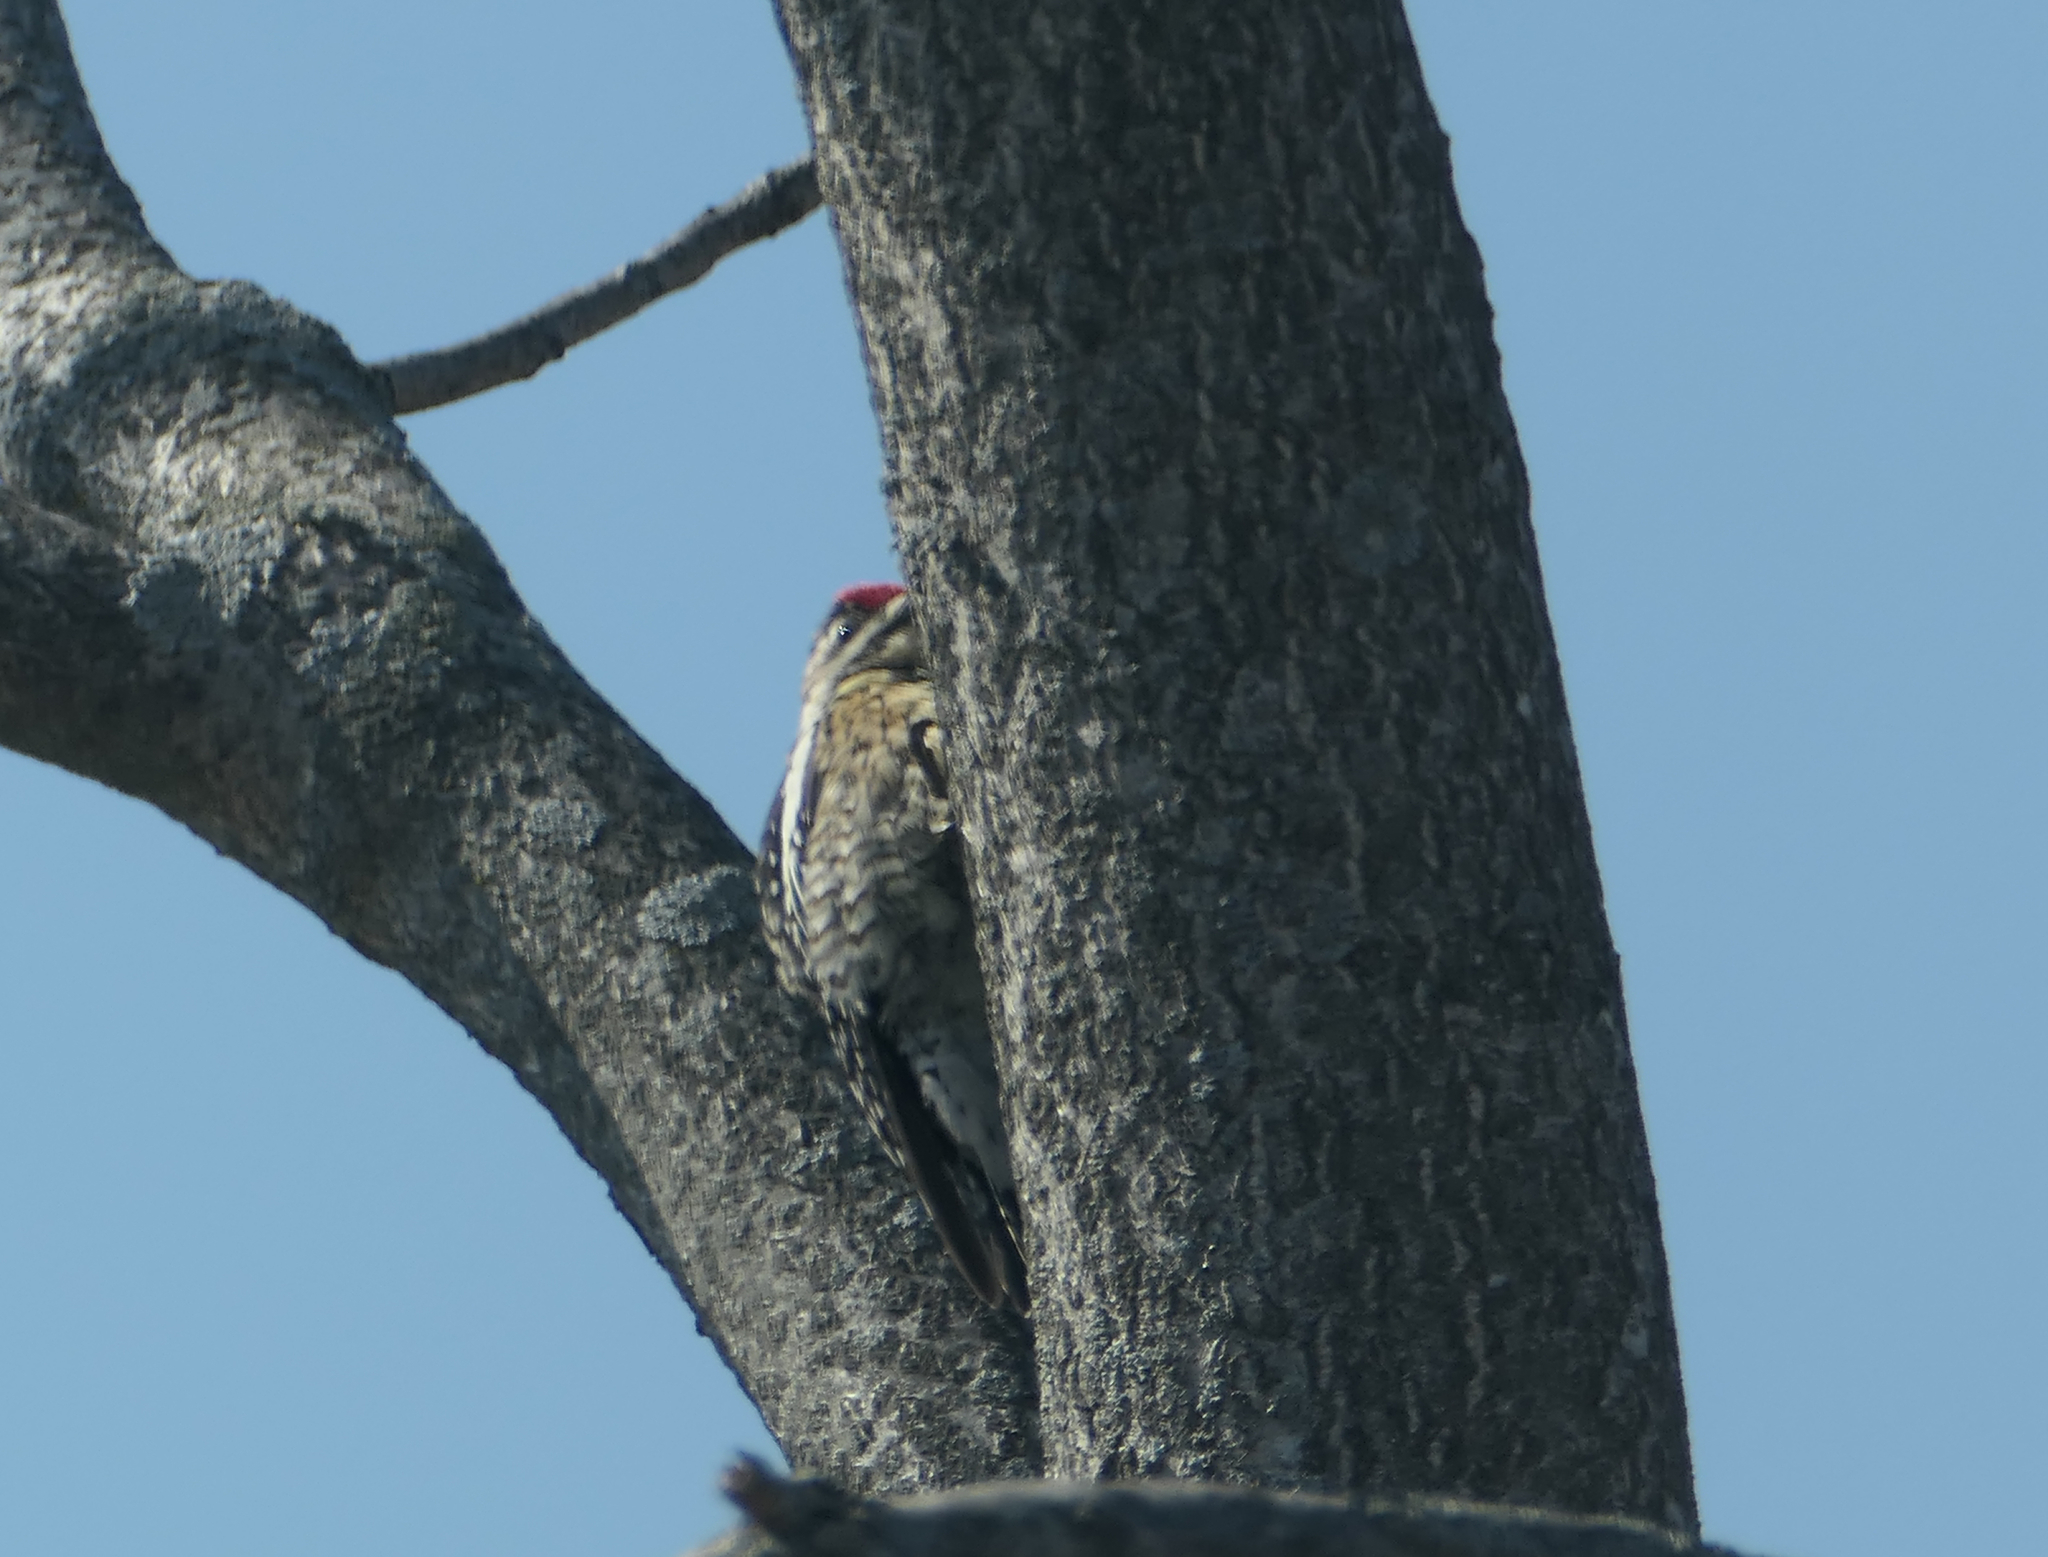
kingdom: Animalia
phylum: Chordata
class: Aves
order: Piciformes
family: Picidae
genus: Sphyrapicus
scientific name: Sphyrapicus varius
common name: Yellow-bellied sapsucker
